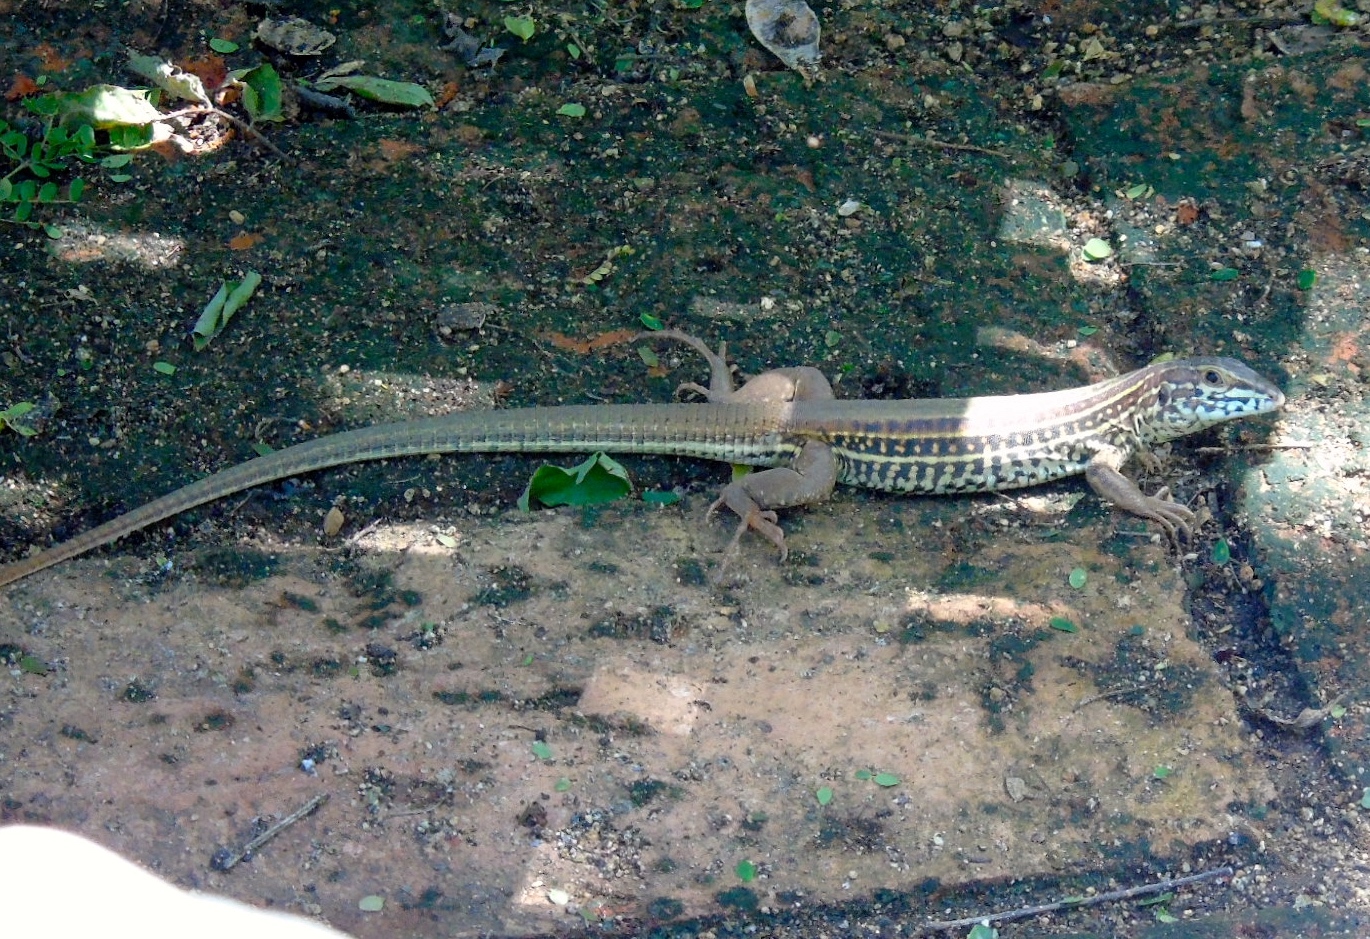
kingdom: Animalia
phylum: Chordata
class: Squamata
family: Teiidae
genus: Aspidoscelis
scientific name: Aspidoscelis costatus
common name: Western mexico whiptail
